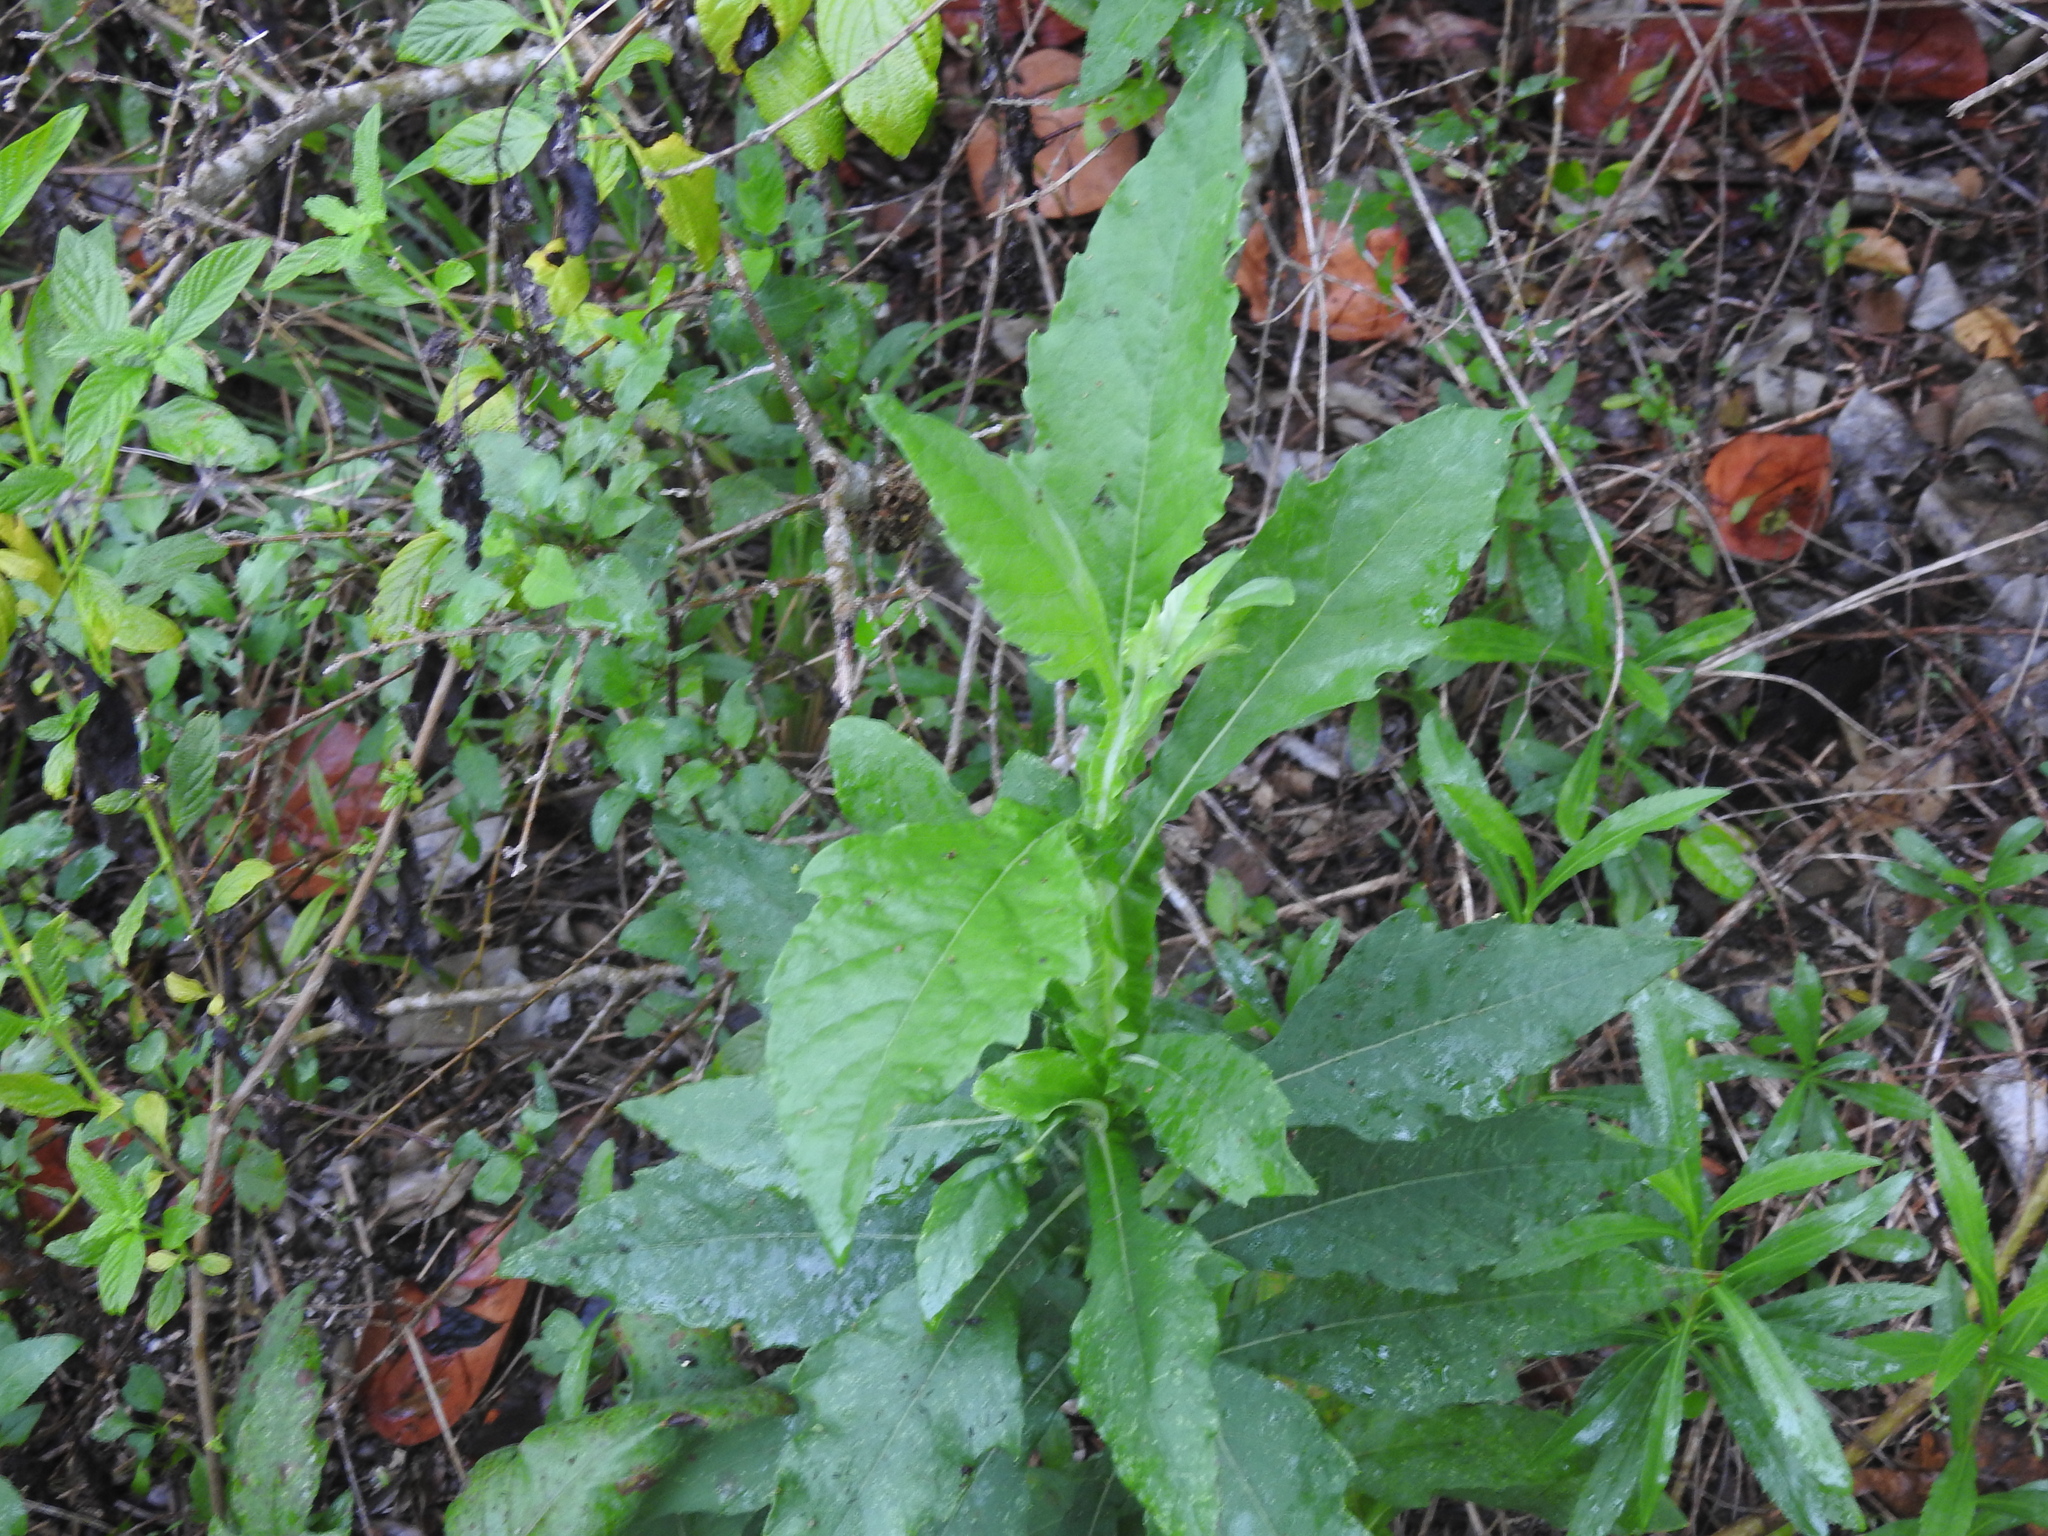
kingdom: Plantae
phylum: Tracheophyta
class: Magnoliopsida
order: Asterales
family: Asteraceae
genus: Verbesina
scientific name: Verbesina virginica
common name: Frostweed
